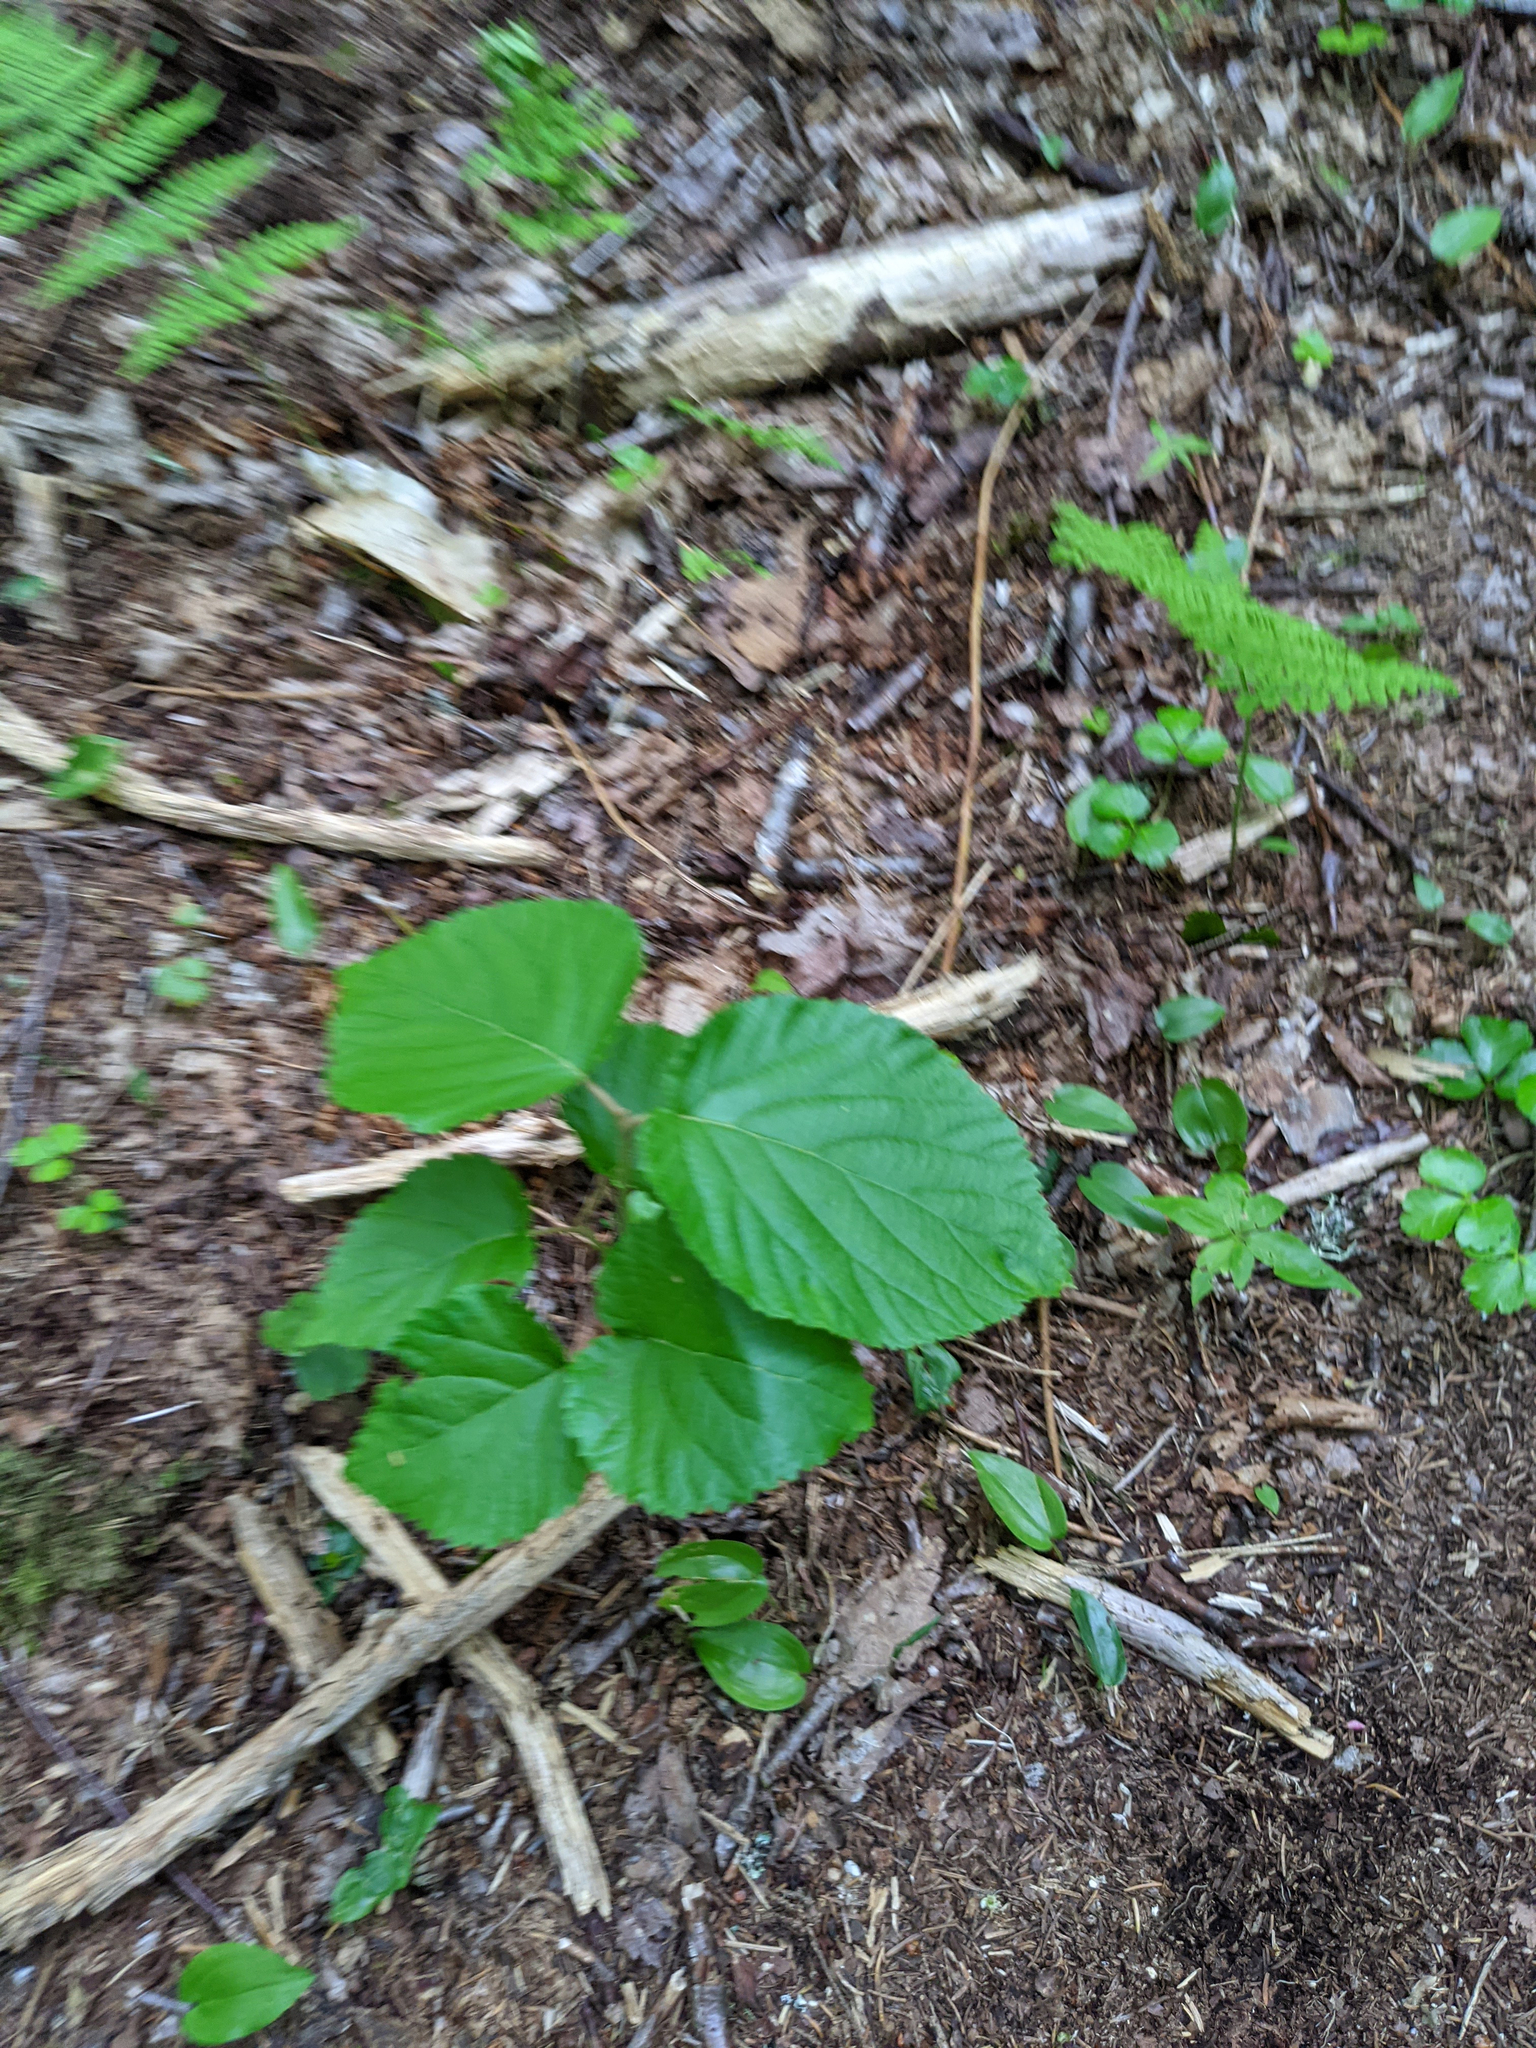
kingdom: Plantae
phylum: Tracheophyta
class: Magnoliopsida
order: Dipsacales
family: Viburnaceae
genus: Viburnum
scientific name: Viburnum lantanoides
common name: Hobblebush
